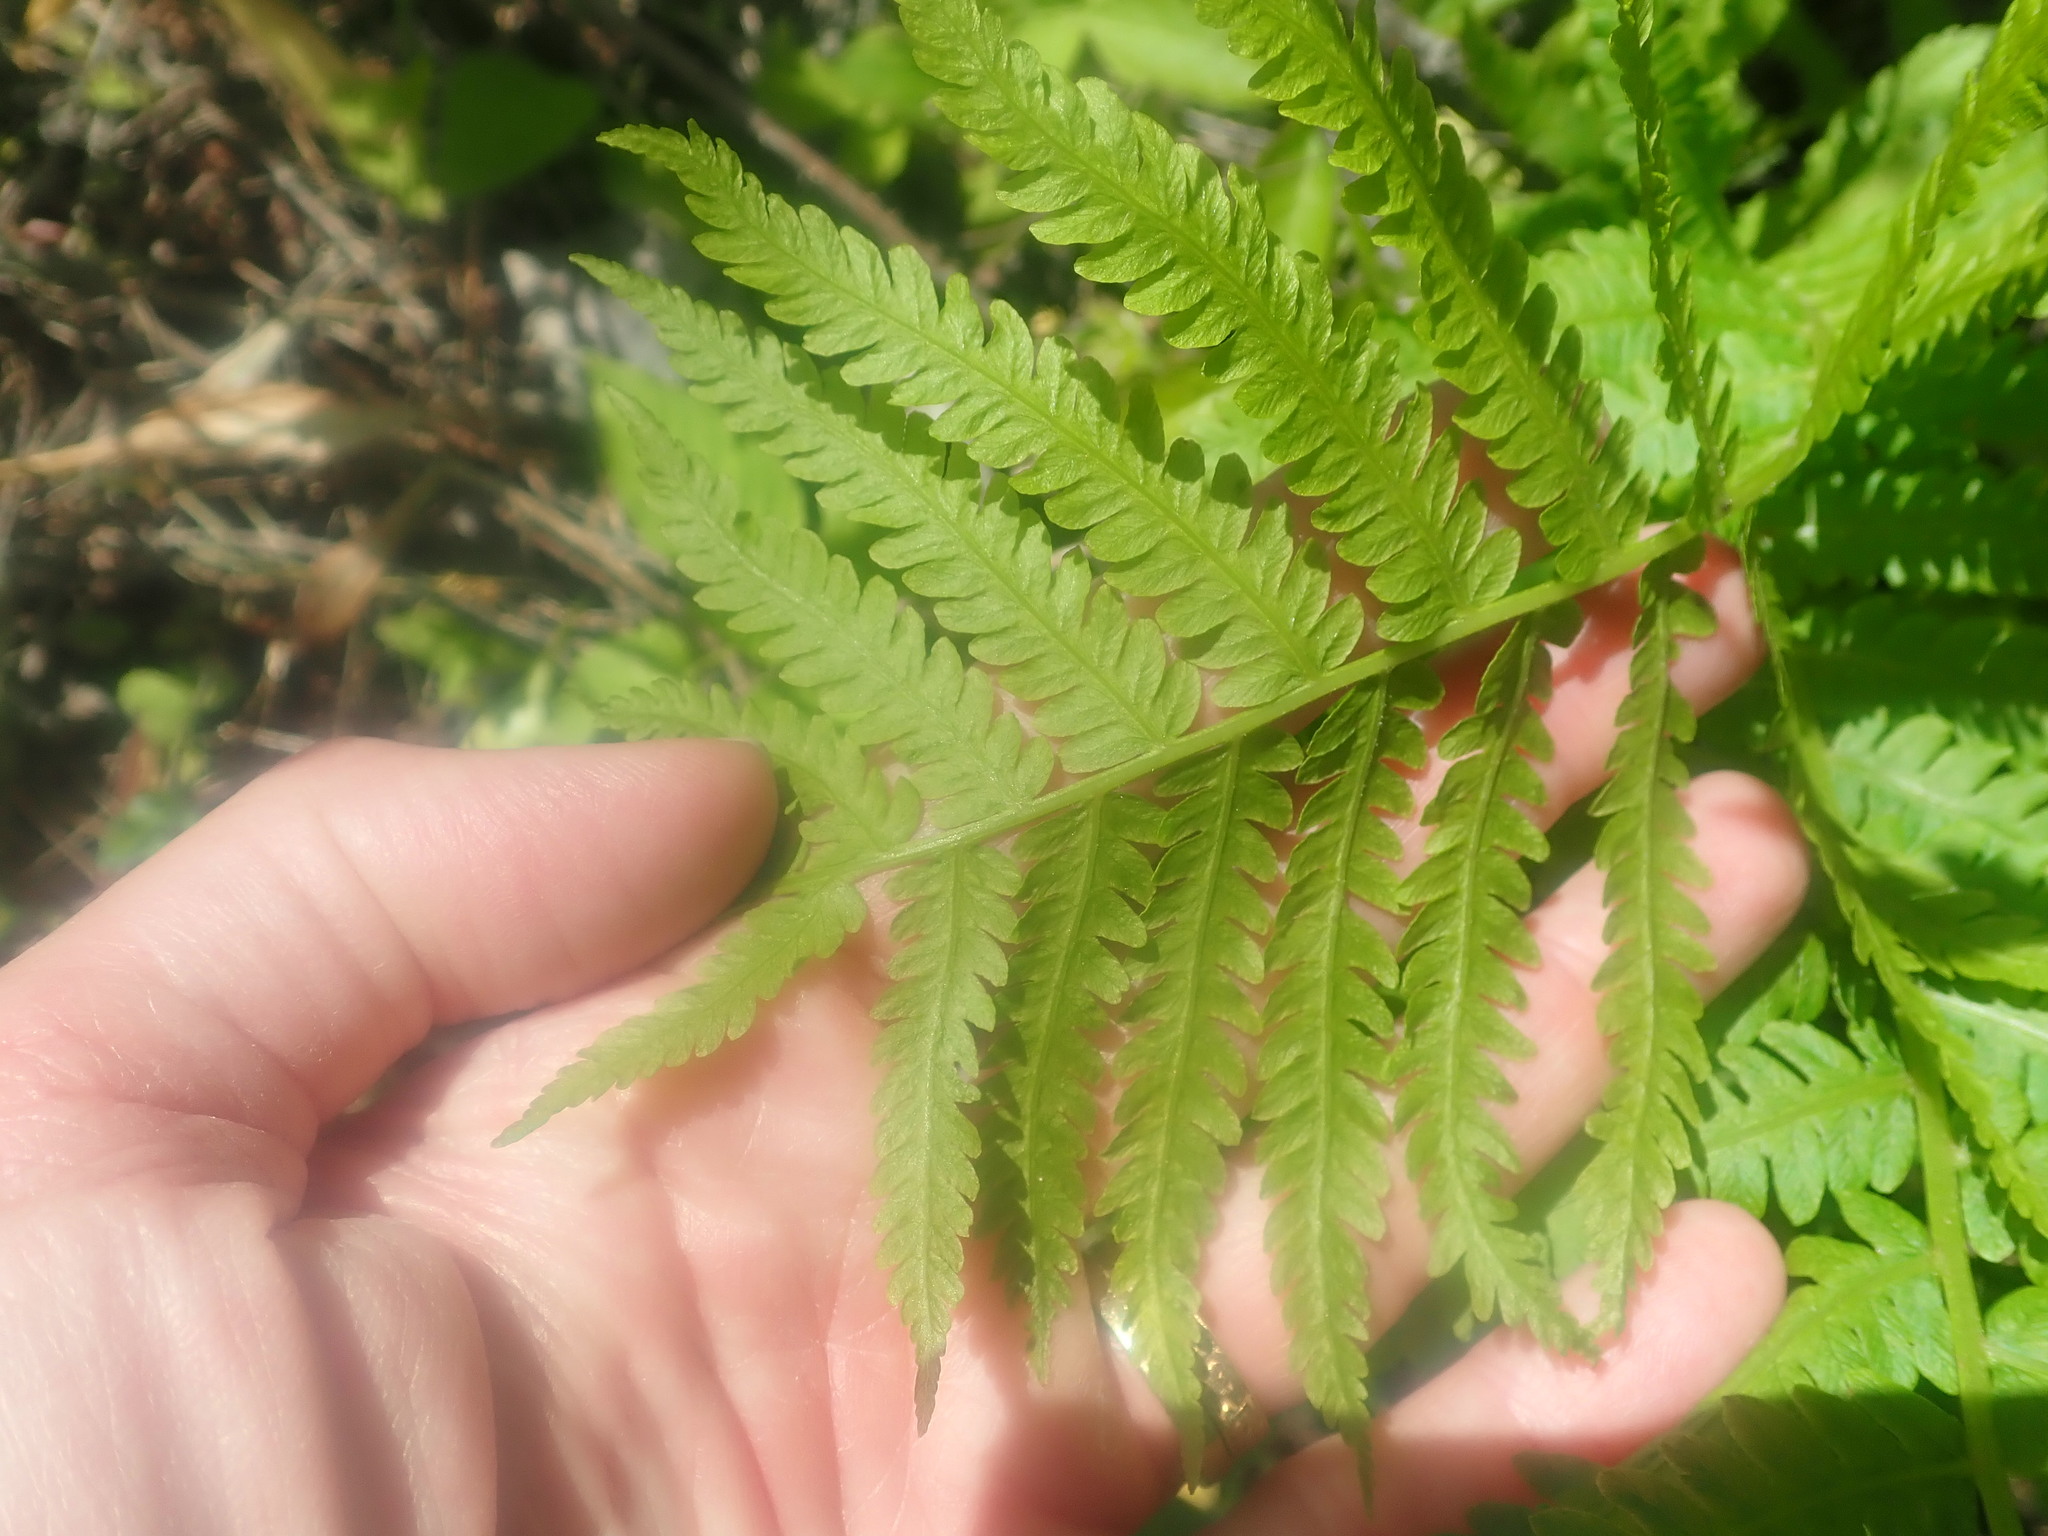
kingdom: Plantae
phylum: Tracheophyta
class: Polypodiopsida
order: Polypodiales
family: Onocleaceae
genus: Matteuccia
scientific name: Matteuccia struthiopteris
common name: Ostrich fern
